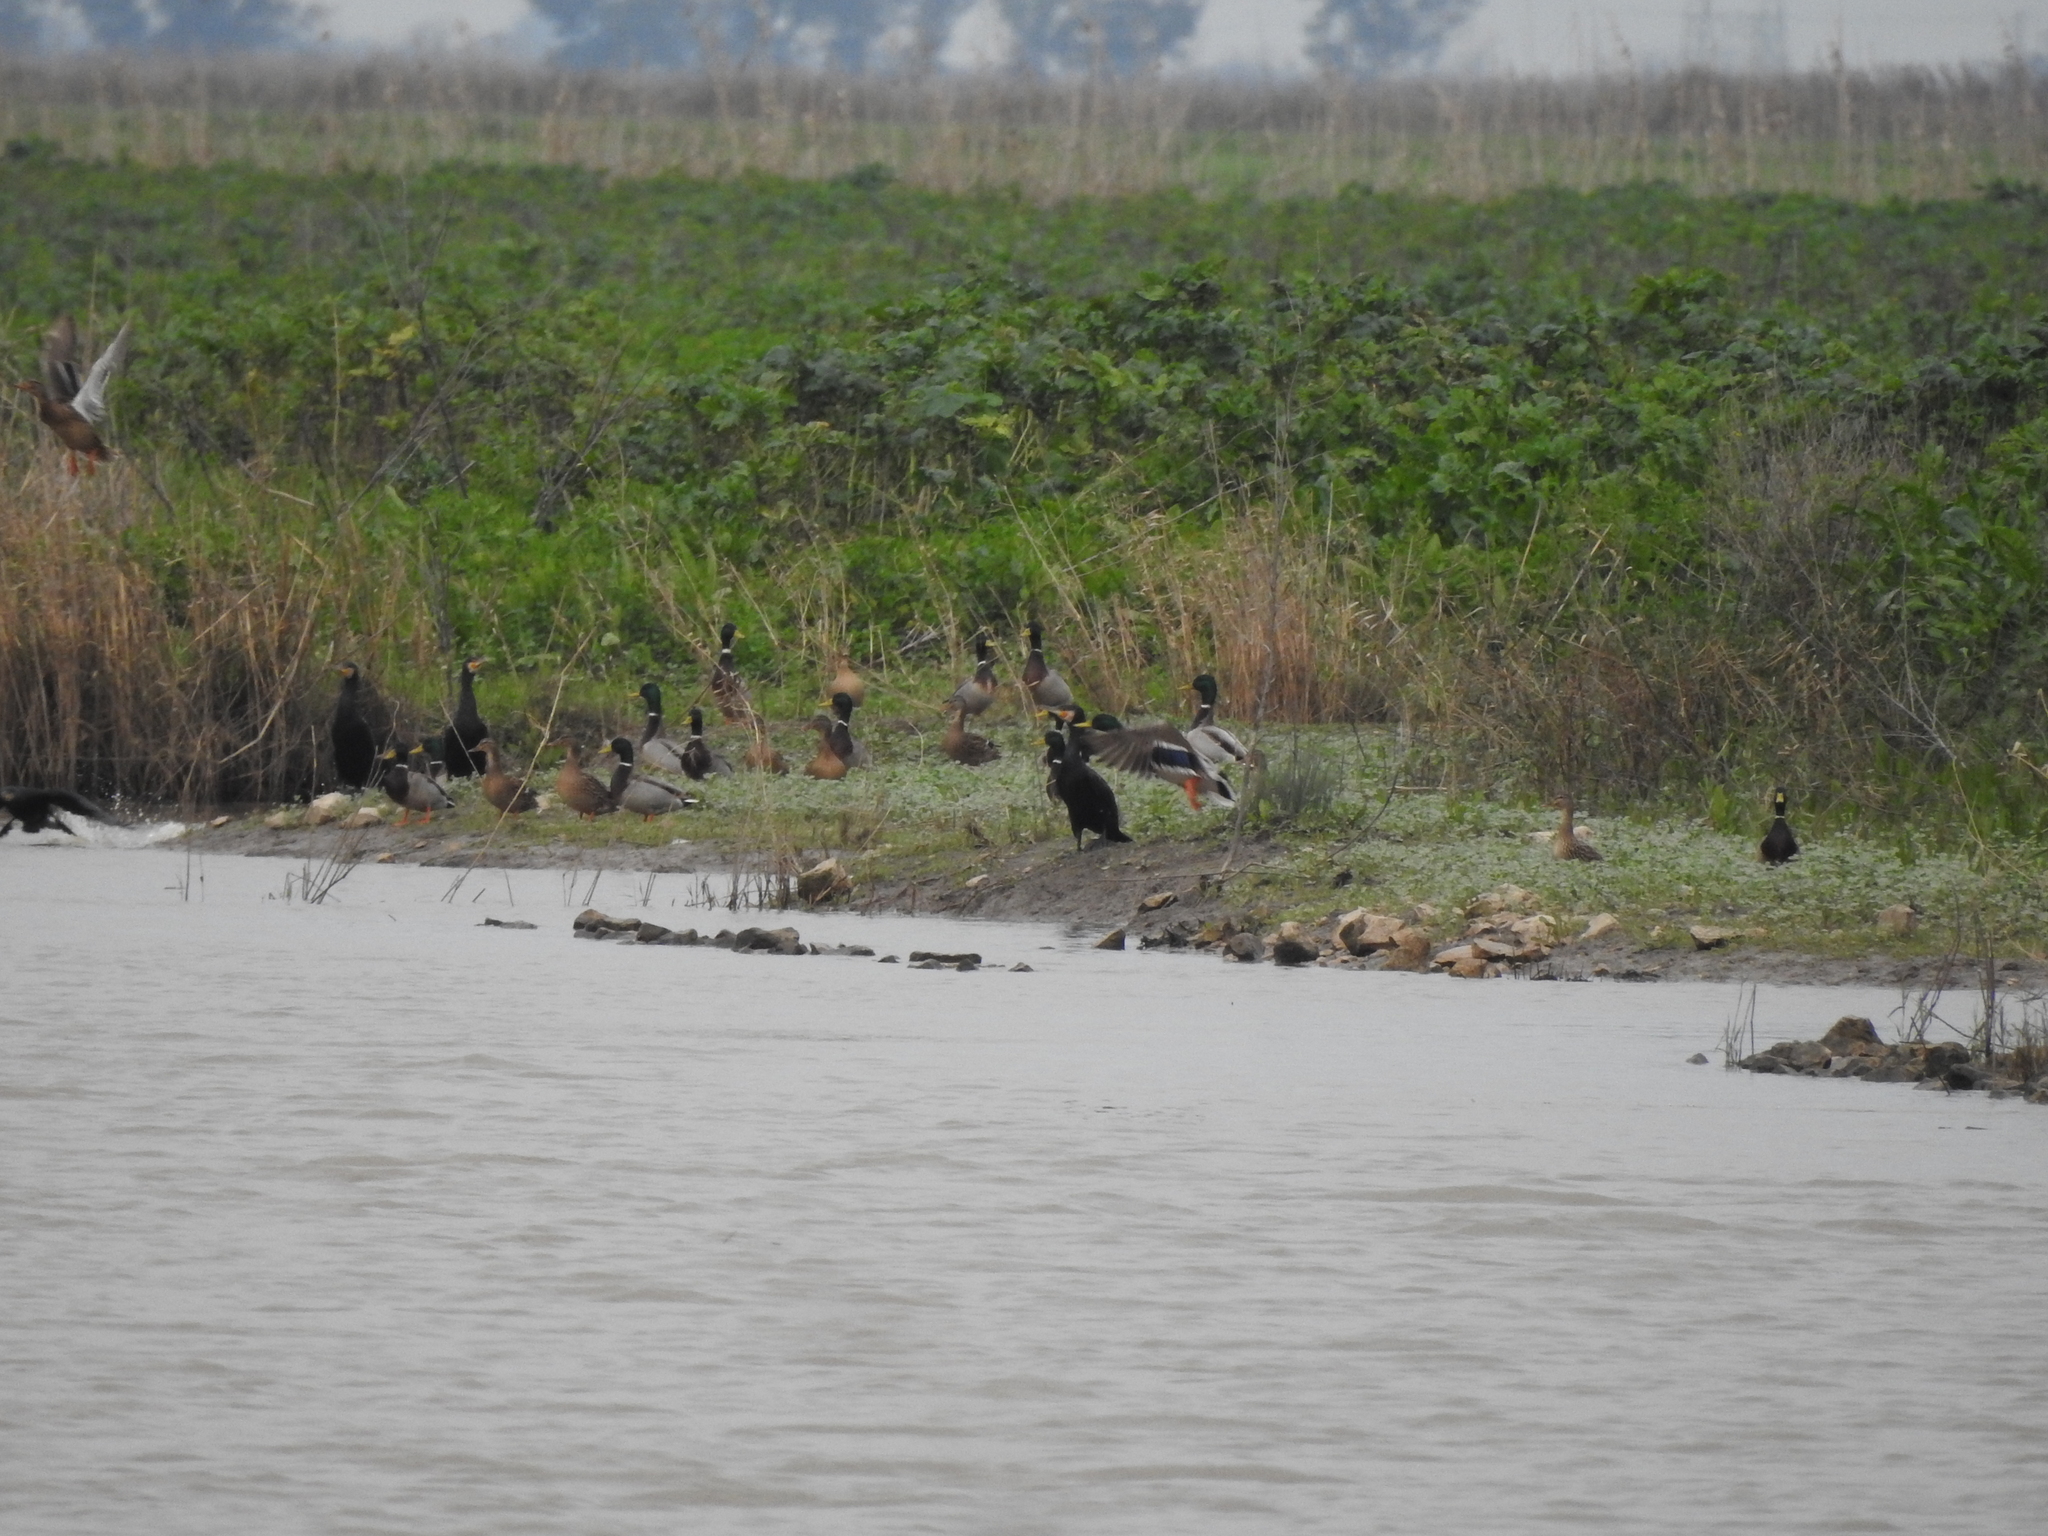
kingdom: Animalia
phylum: Chordata
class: Aves
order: Anseriformes
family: Anatidae
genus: Anas
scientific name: Anas platyrhynchos
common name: Mallard
